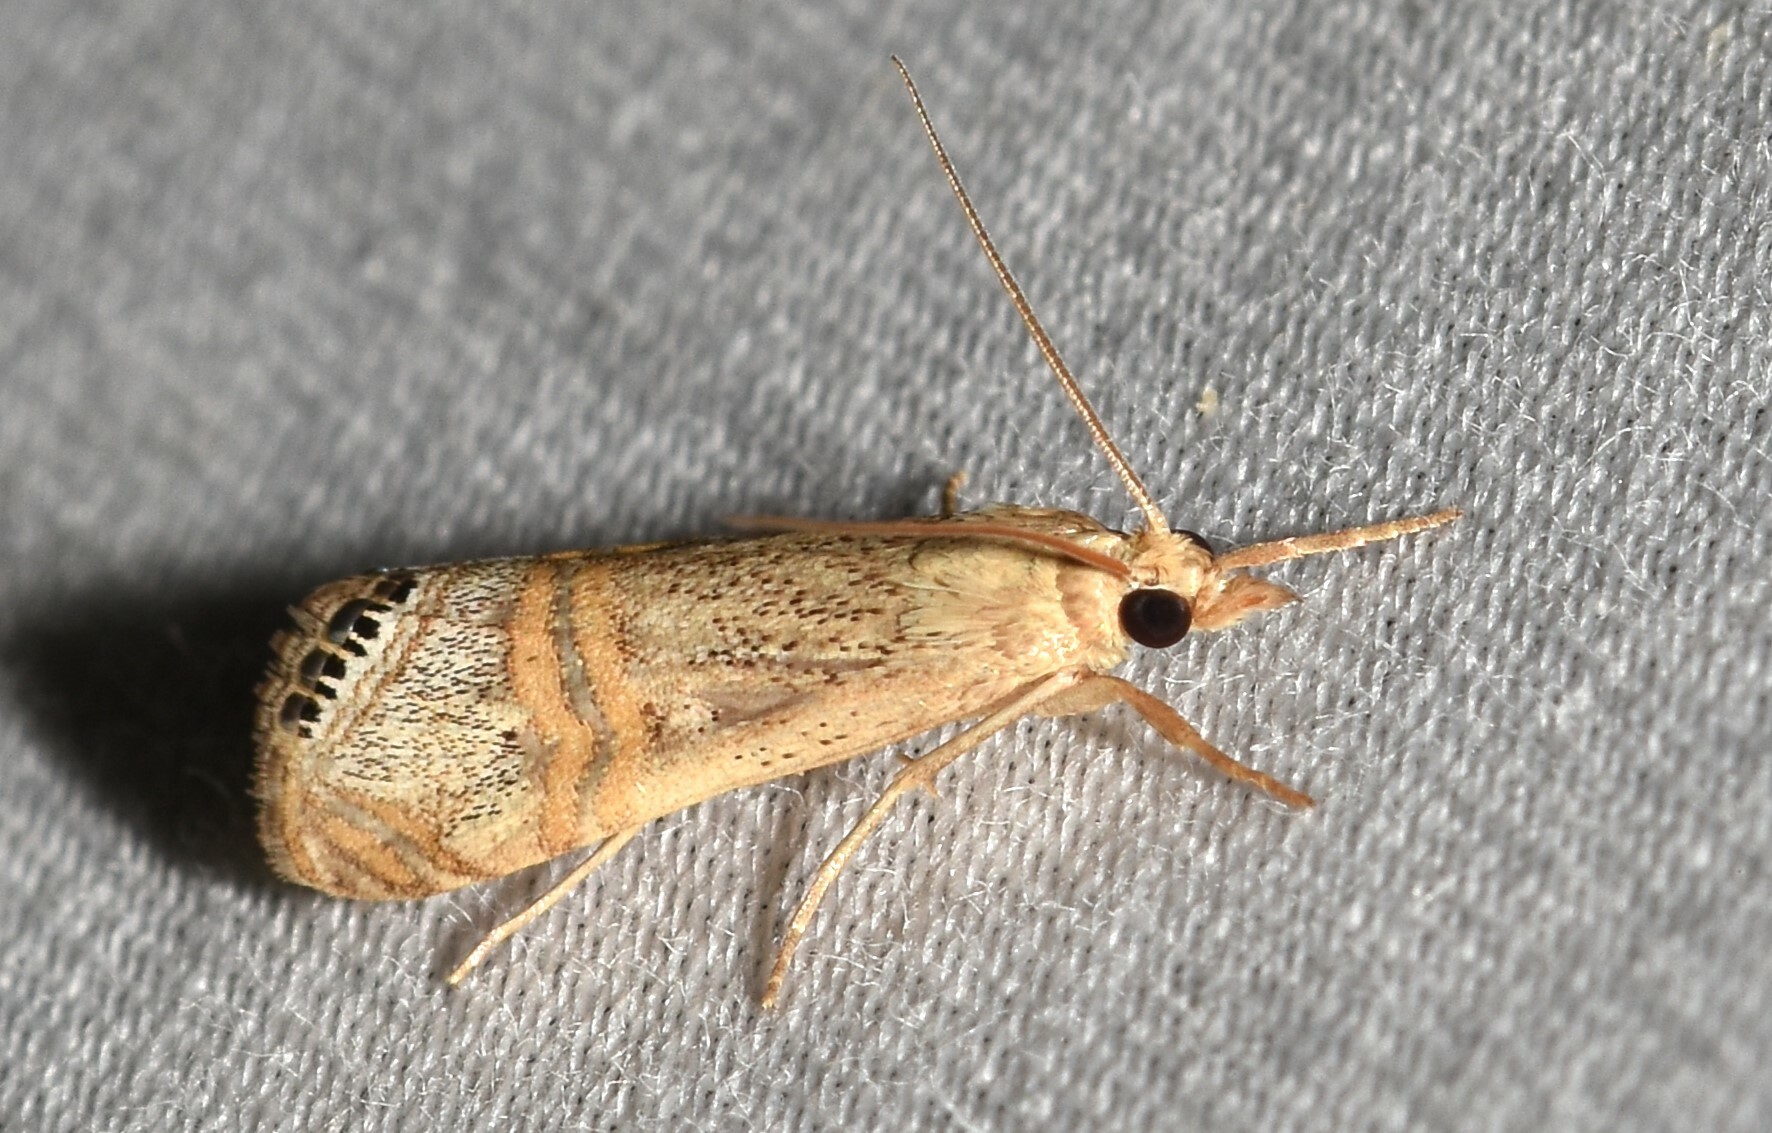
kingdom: Animalia
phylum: Arthropoda
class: Insecta
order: Lepidoptera
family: Crambidae
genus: Euchromius
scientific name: Euchromius ocellea
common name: Necklace veneer moth
